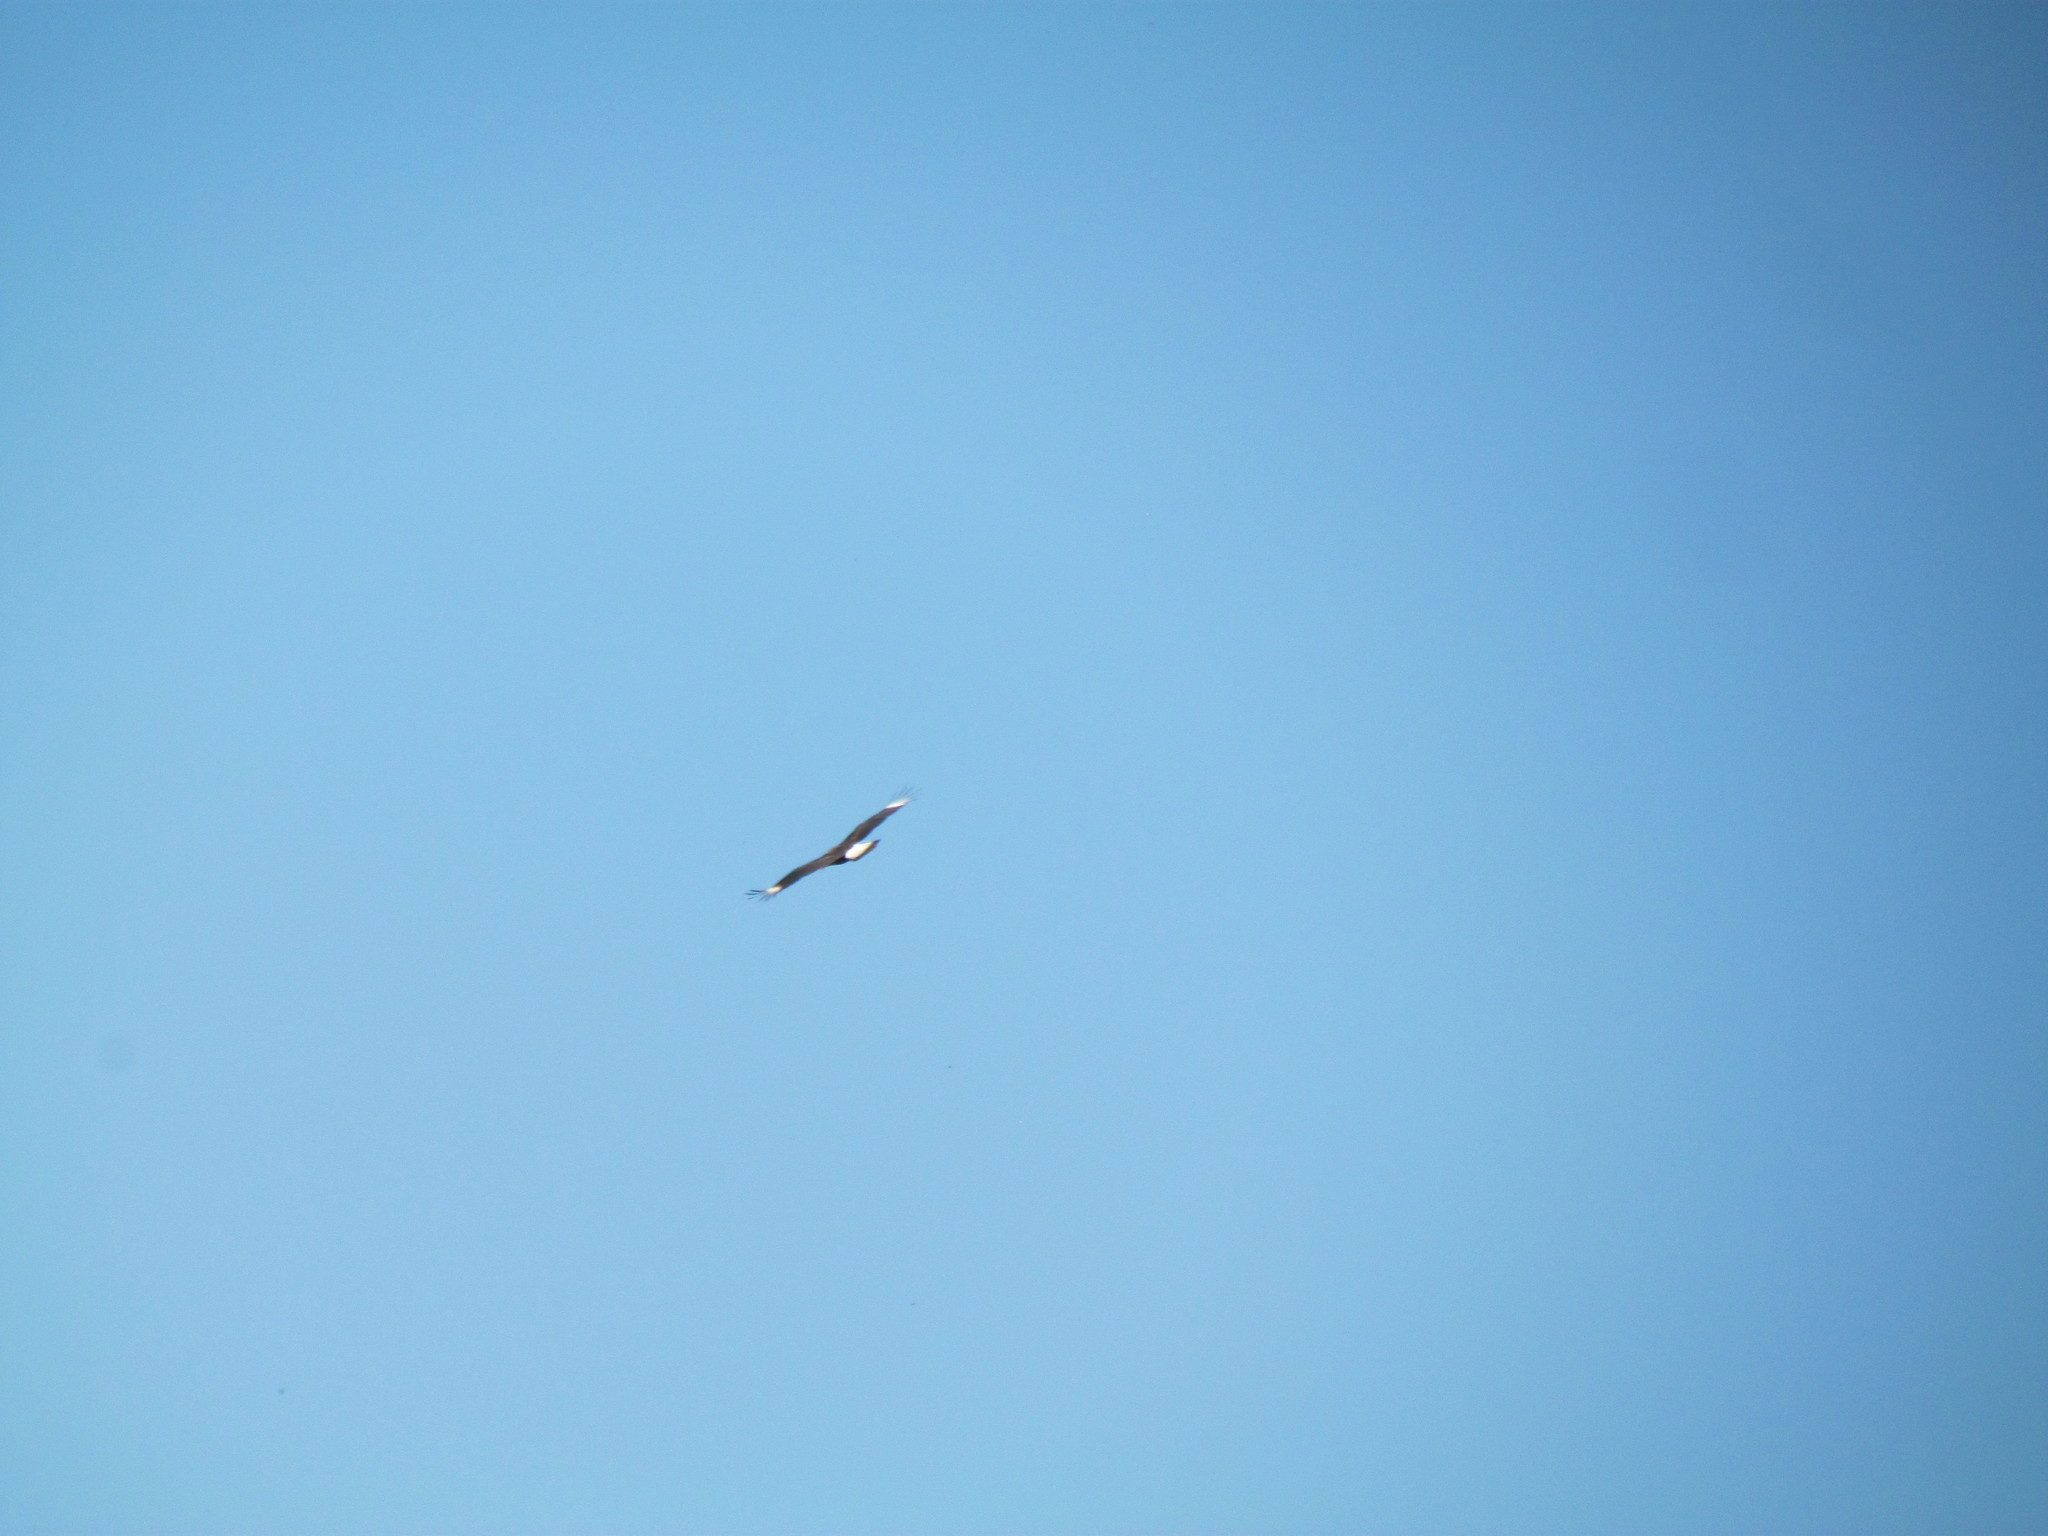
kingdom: Animalia
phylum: Chordata
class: Aves
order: Falconiformes
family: Falconidae
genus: Caracara
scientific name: Caracara plancus
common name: Southern caracara
